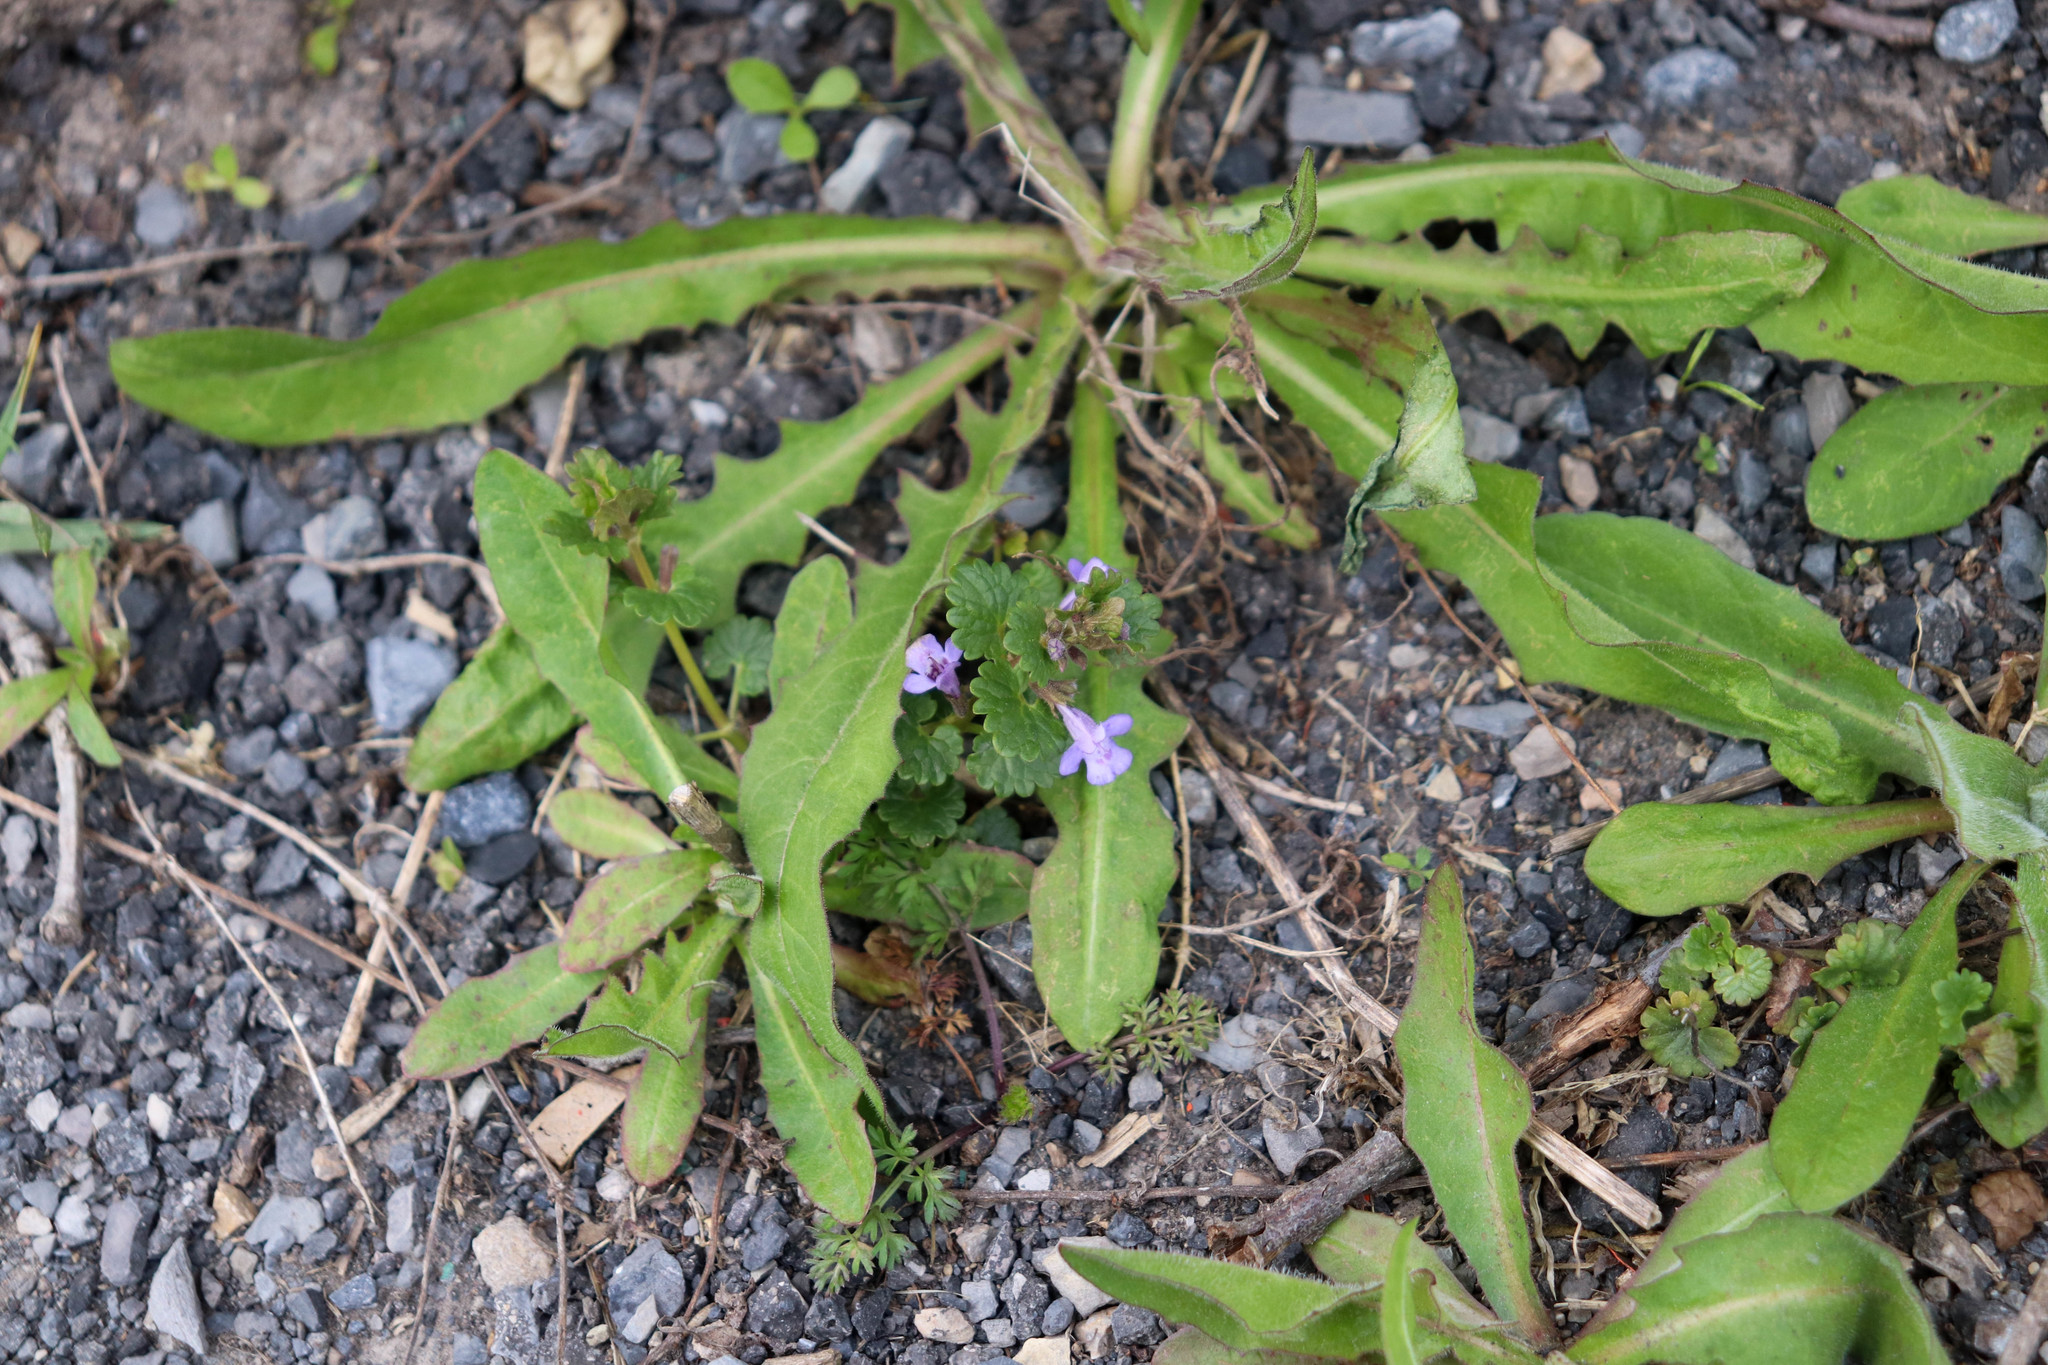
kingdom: Plantae
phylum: Tracheophyta
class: Magnoliopsida
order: Lamiales
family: Lamiaceae
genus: Glechoma
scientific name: Glechoma hederacea
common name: Ground ivy
